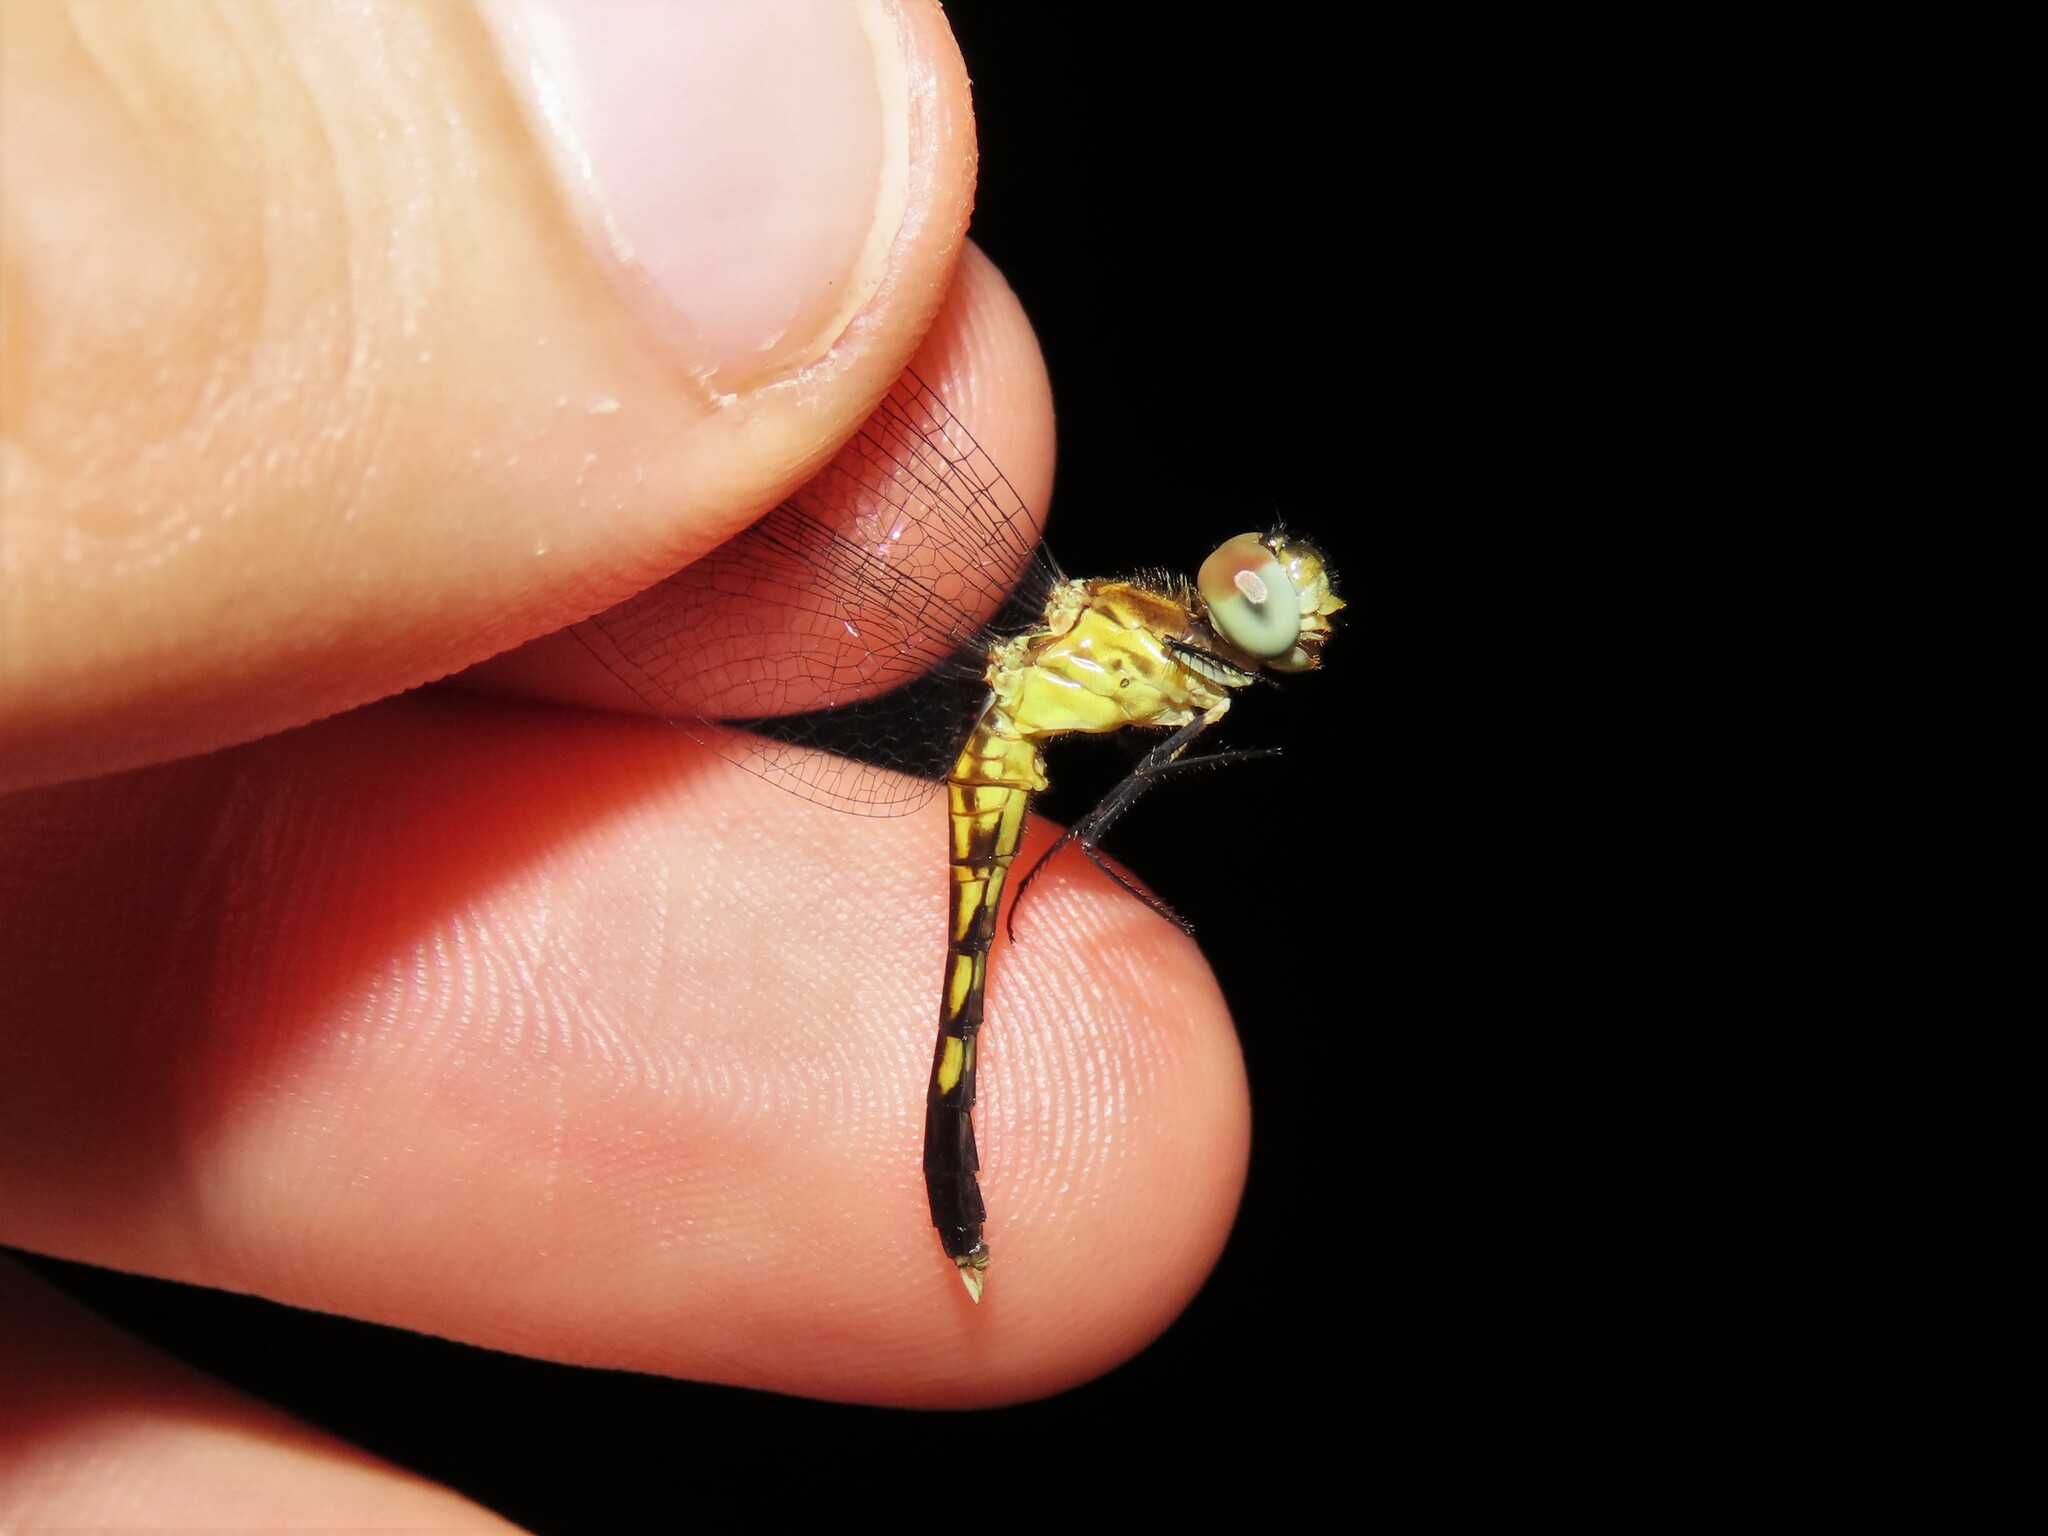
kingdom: Animalia
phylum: Arthropoda
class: Insecta
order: Odonata
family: Libellulidae
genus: Erythrodiplax
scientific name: Erythrodiplax minuscula
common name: Little blue dragonlet
